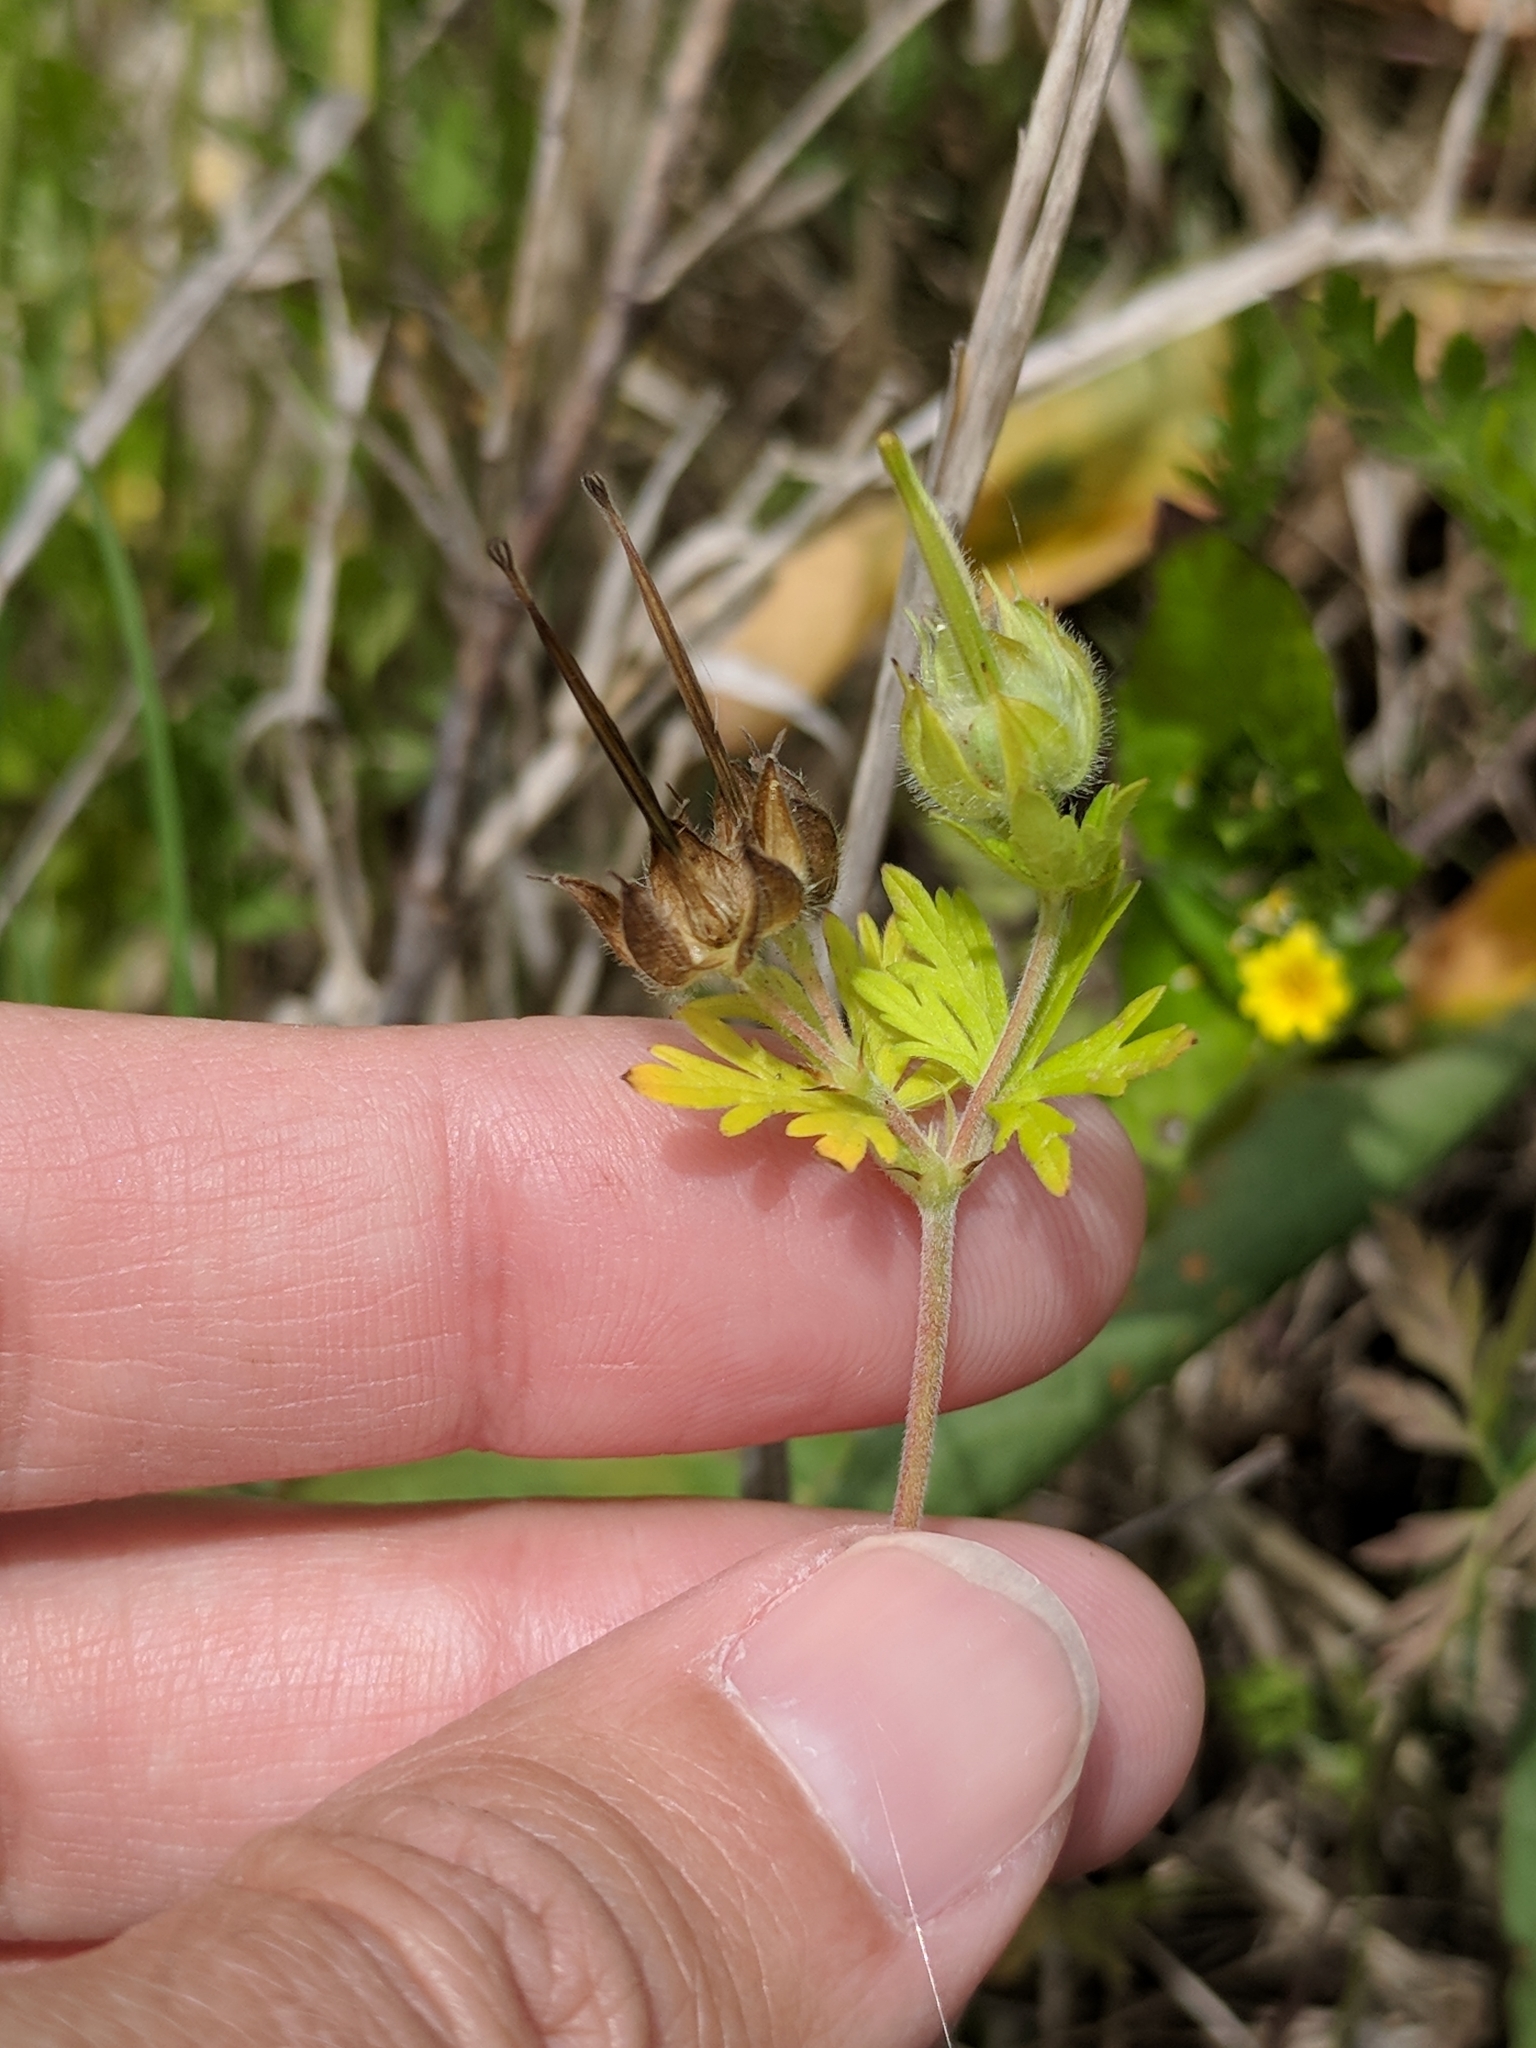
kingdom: Plantae
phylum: Tracheophyta
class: Magnoliopsida
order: Geraniales
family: Geraniaceae
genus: Geranium
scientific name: Geranium carolinianum
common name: Carolina crane's-bill
